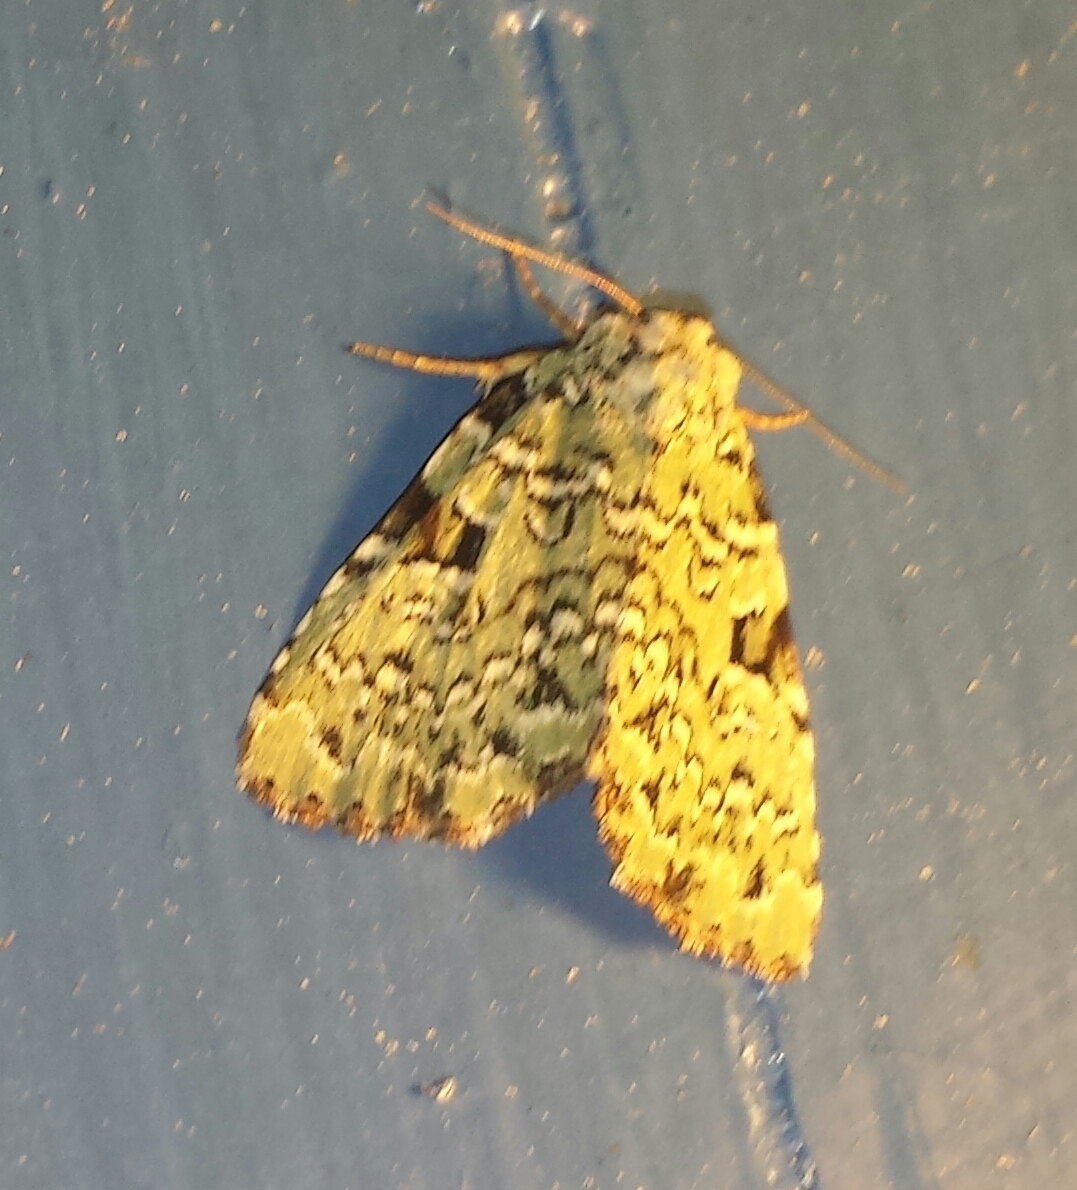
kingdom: Animalia
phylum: Arthropoda
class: Insecta
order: Lepidoptera
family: Noctuidae
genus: Leuconycta
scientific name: Leuconycta diphteroides
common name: Green leuconycta moth
